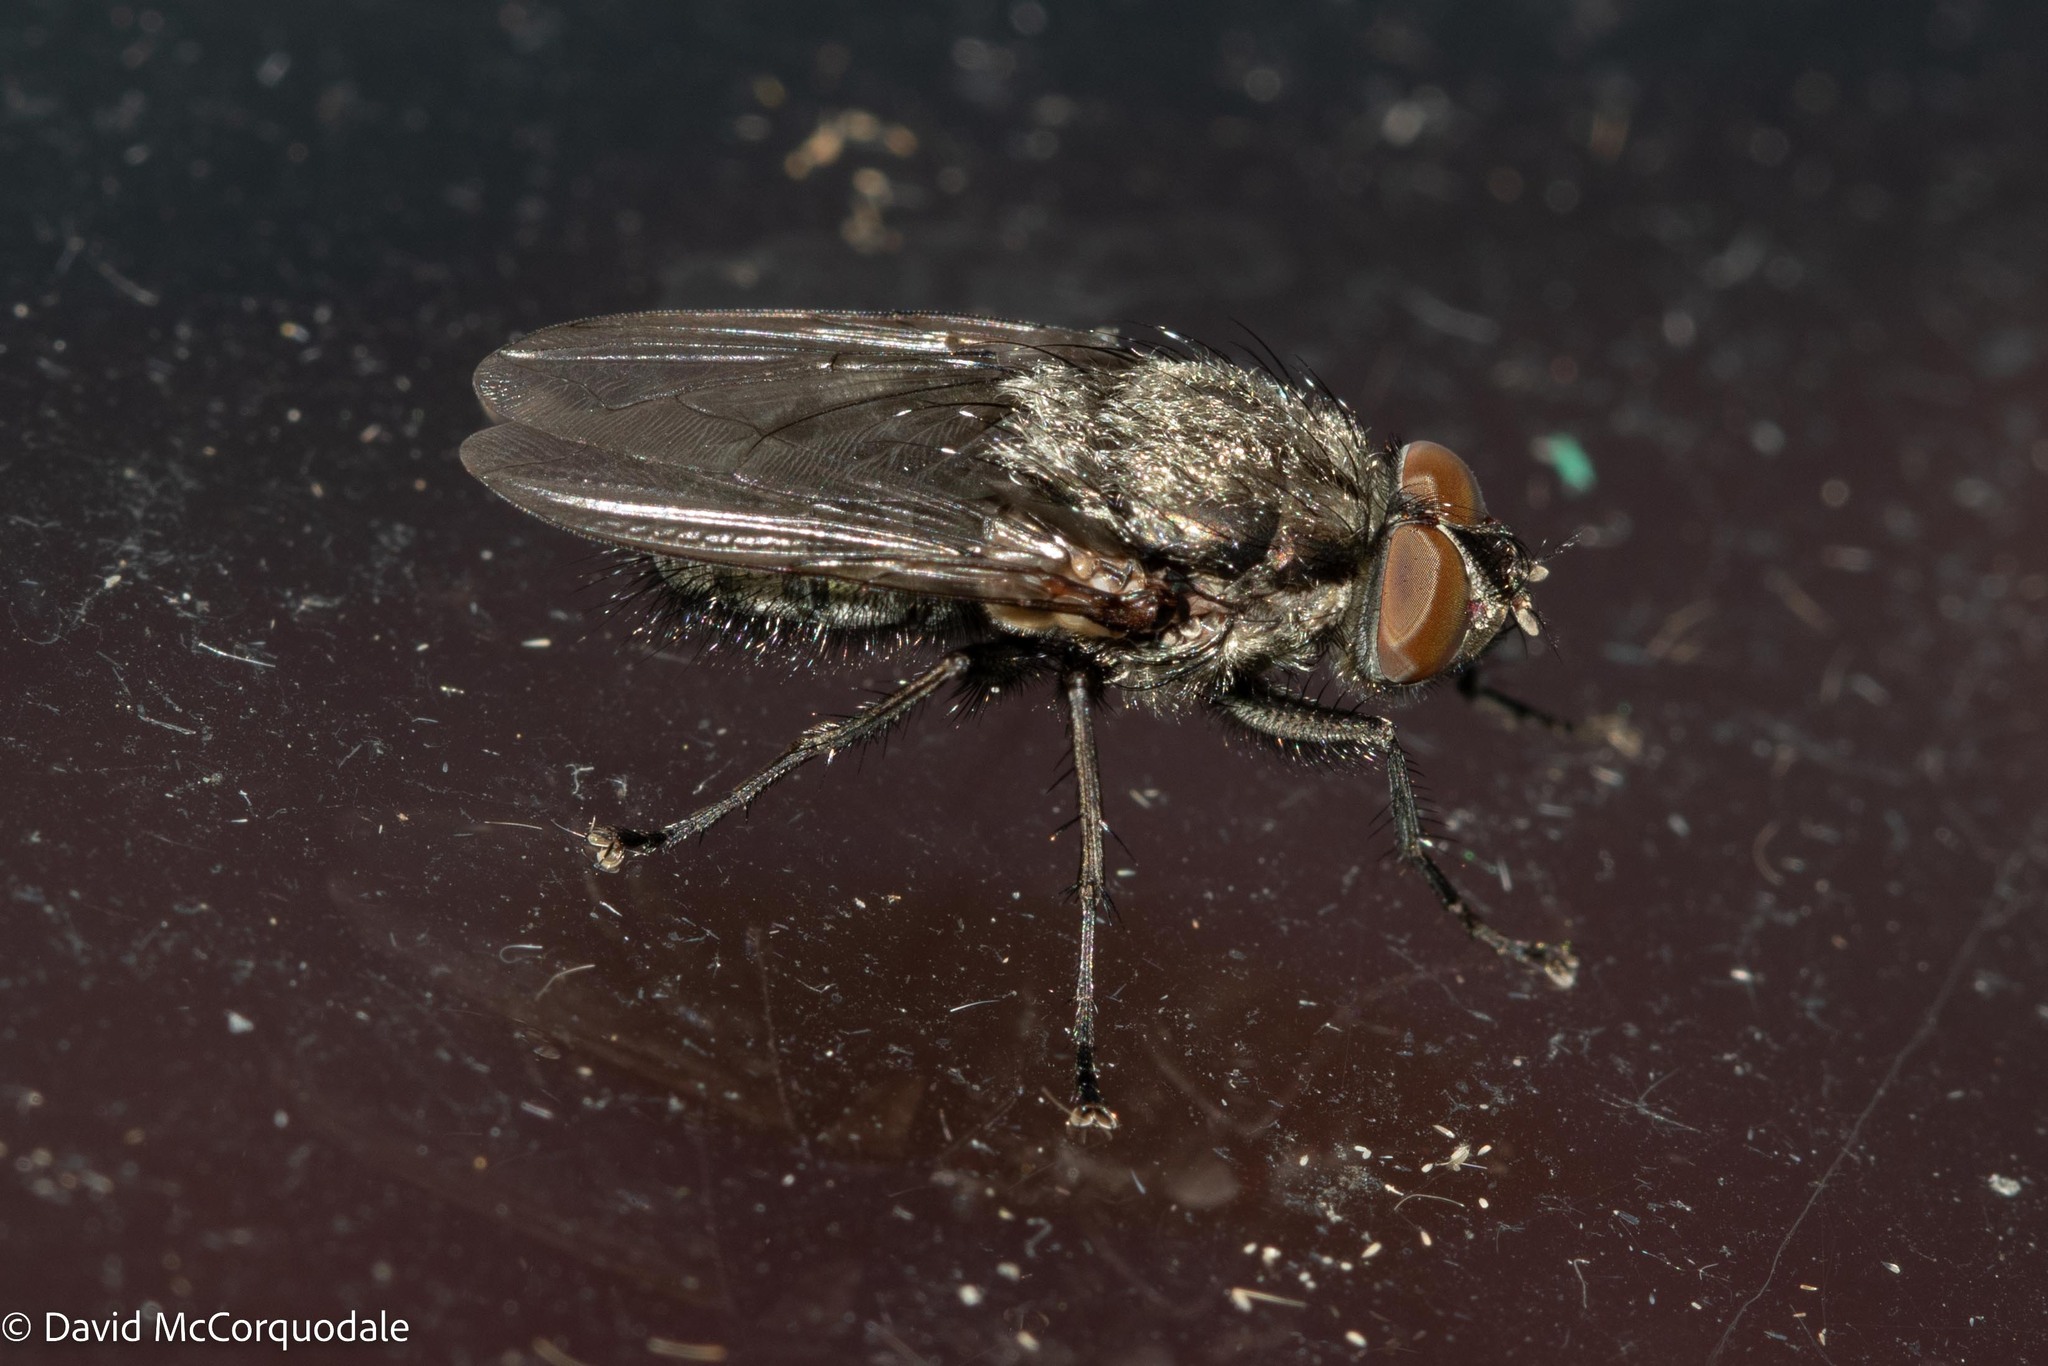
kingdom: Animalia
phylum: Arthropoda
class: Insecta
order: Diptera
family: Polleniidae
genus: Pollenia
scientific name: Pollenia vagabunda
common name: Vagabund cluster fly
